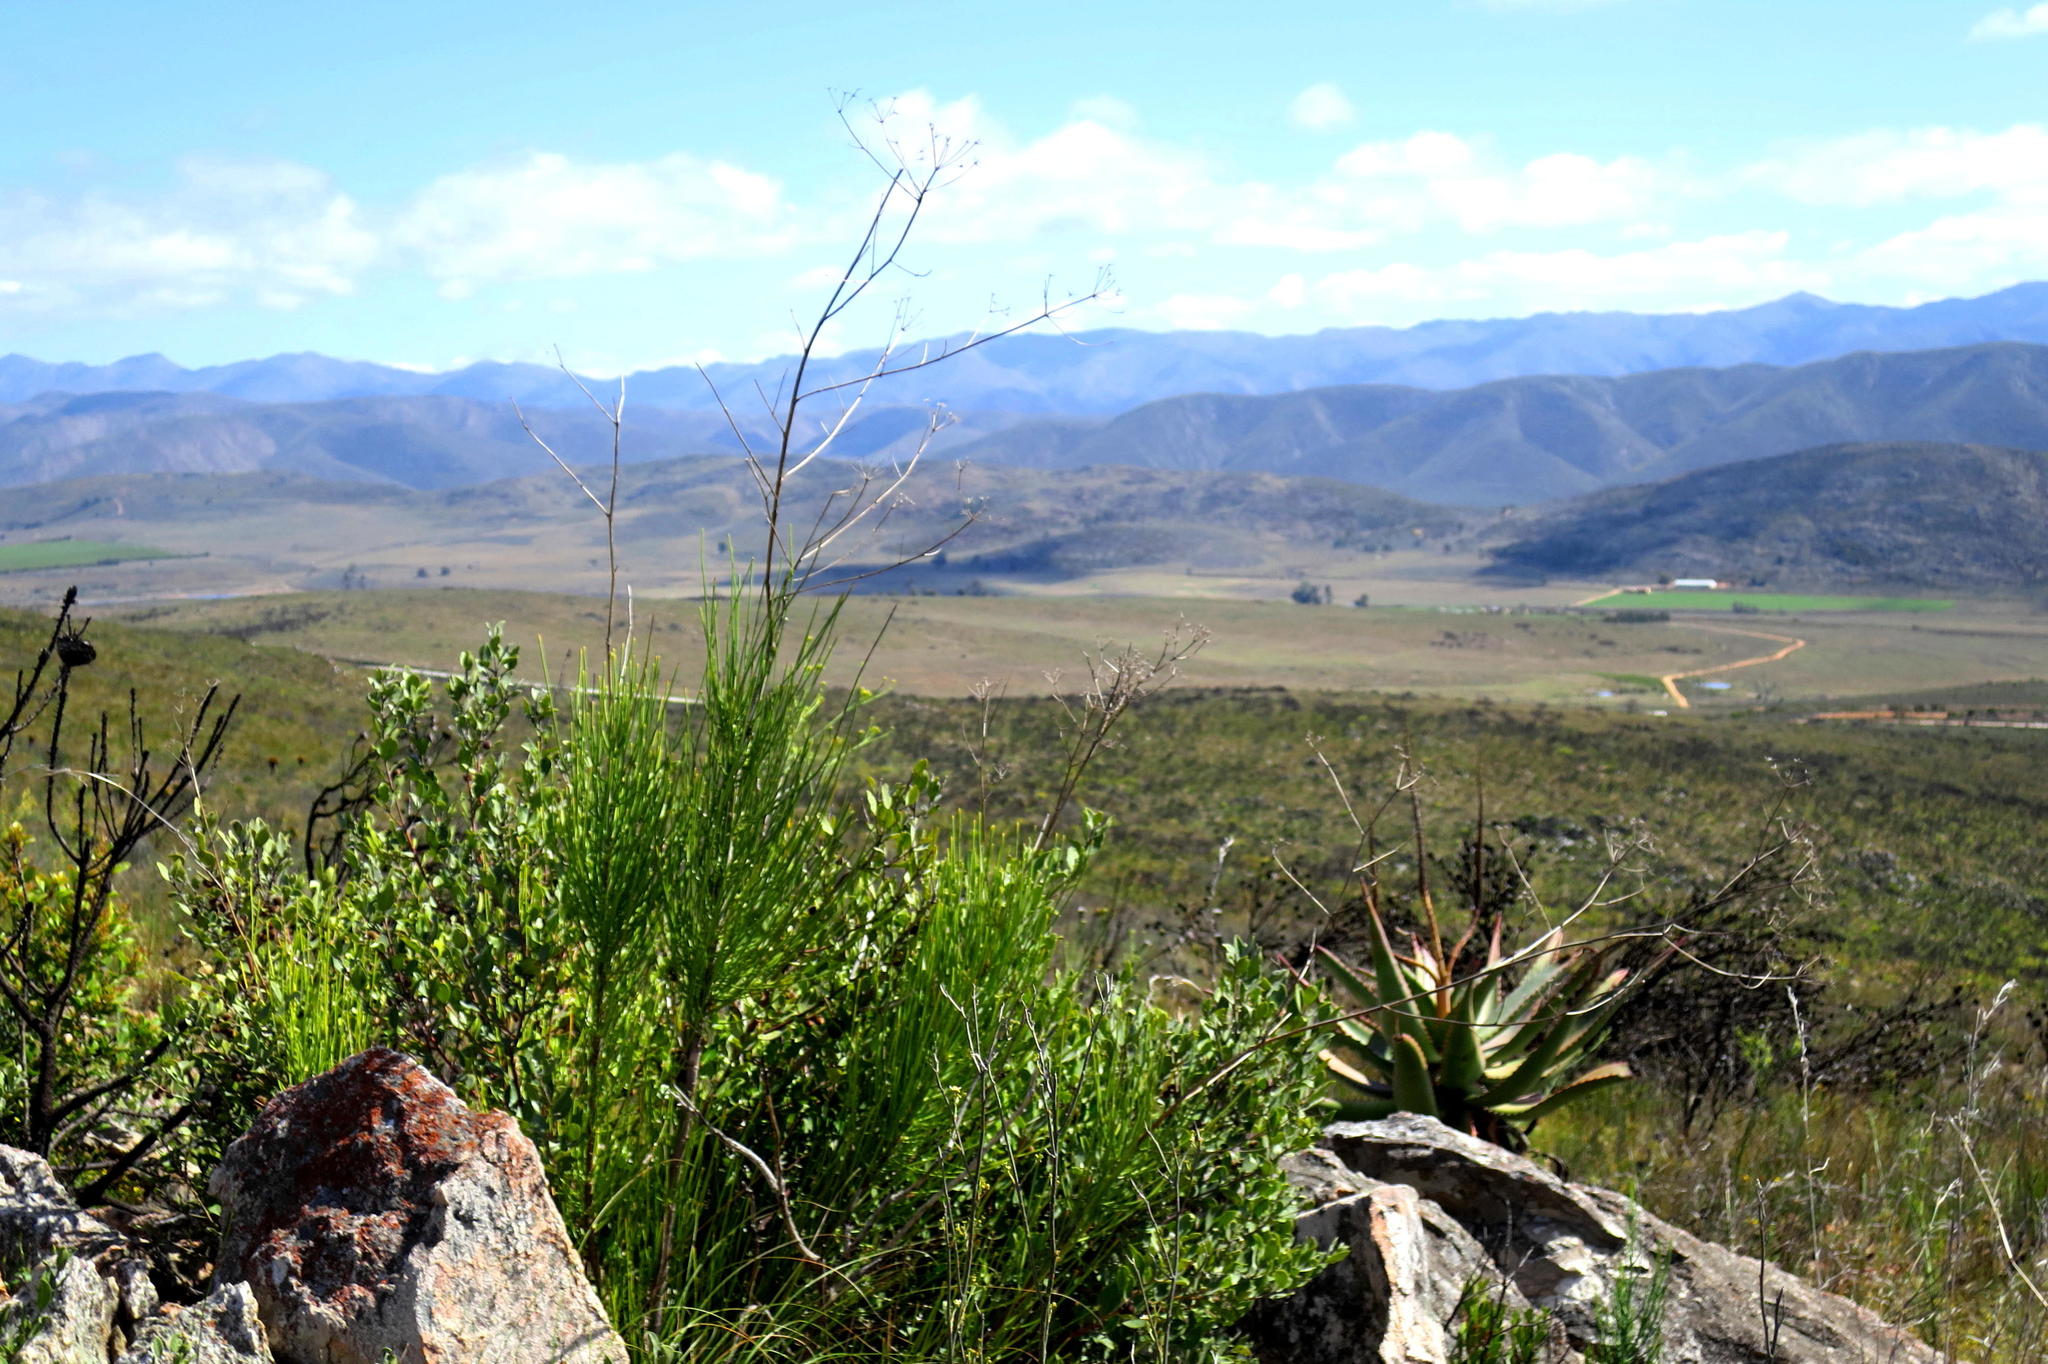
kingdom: Plantae
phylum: Tracheophyta
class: Magnoliopsida
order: Apiales
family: Apiaceae
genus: Anginon
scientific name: Anginon difforme
